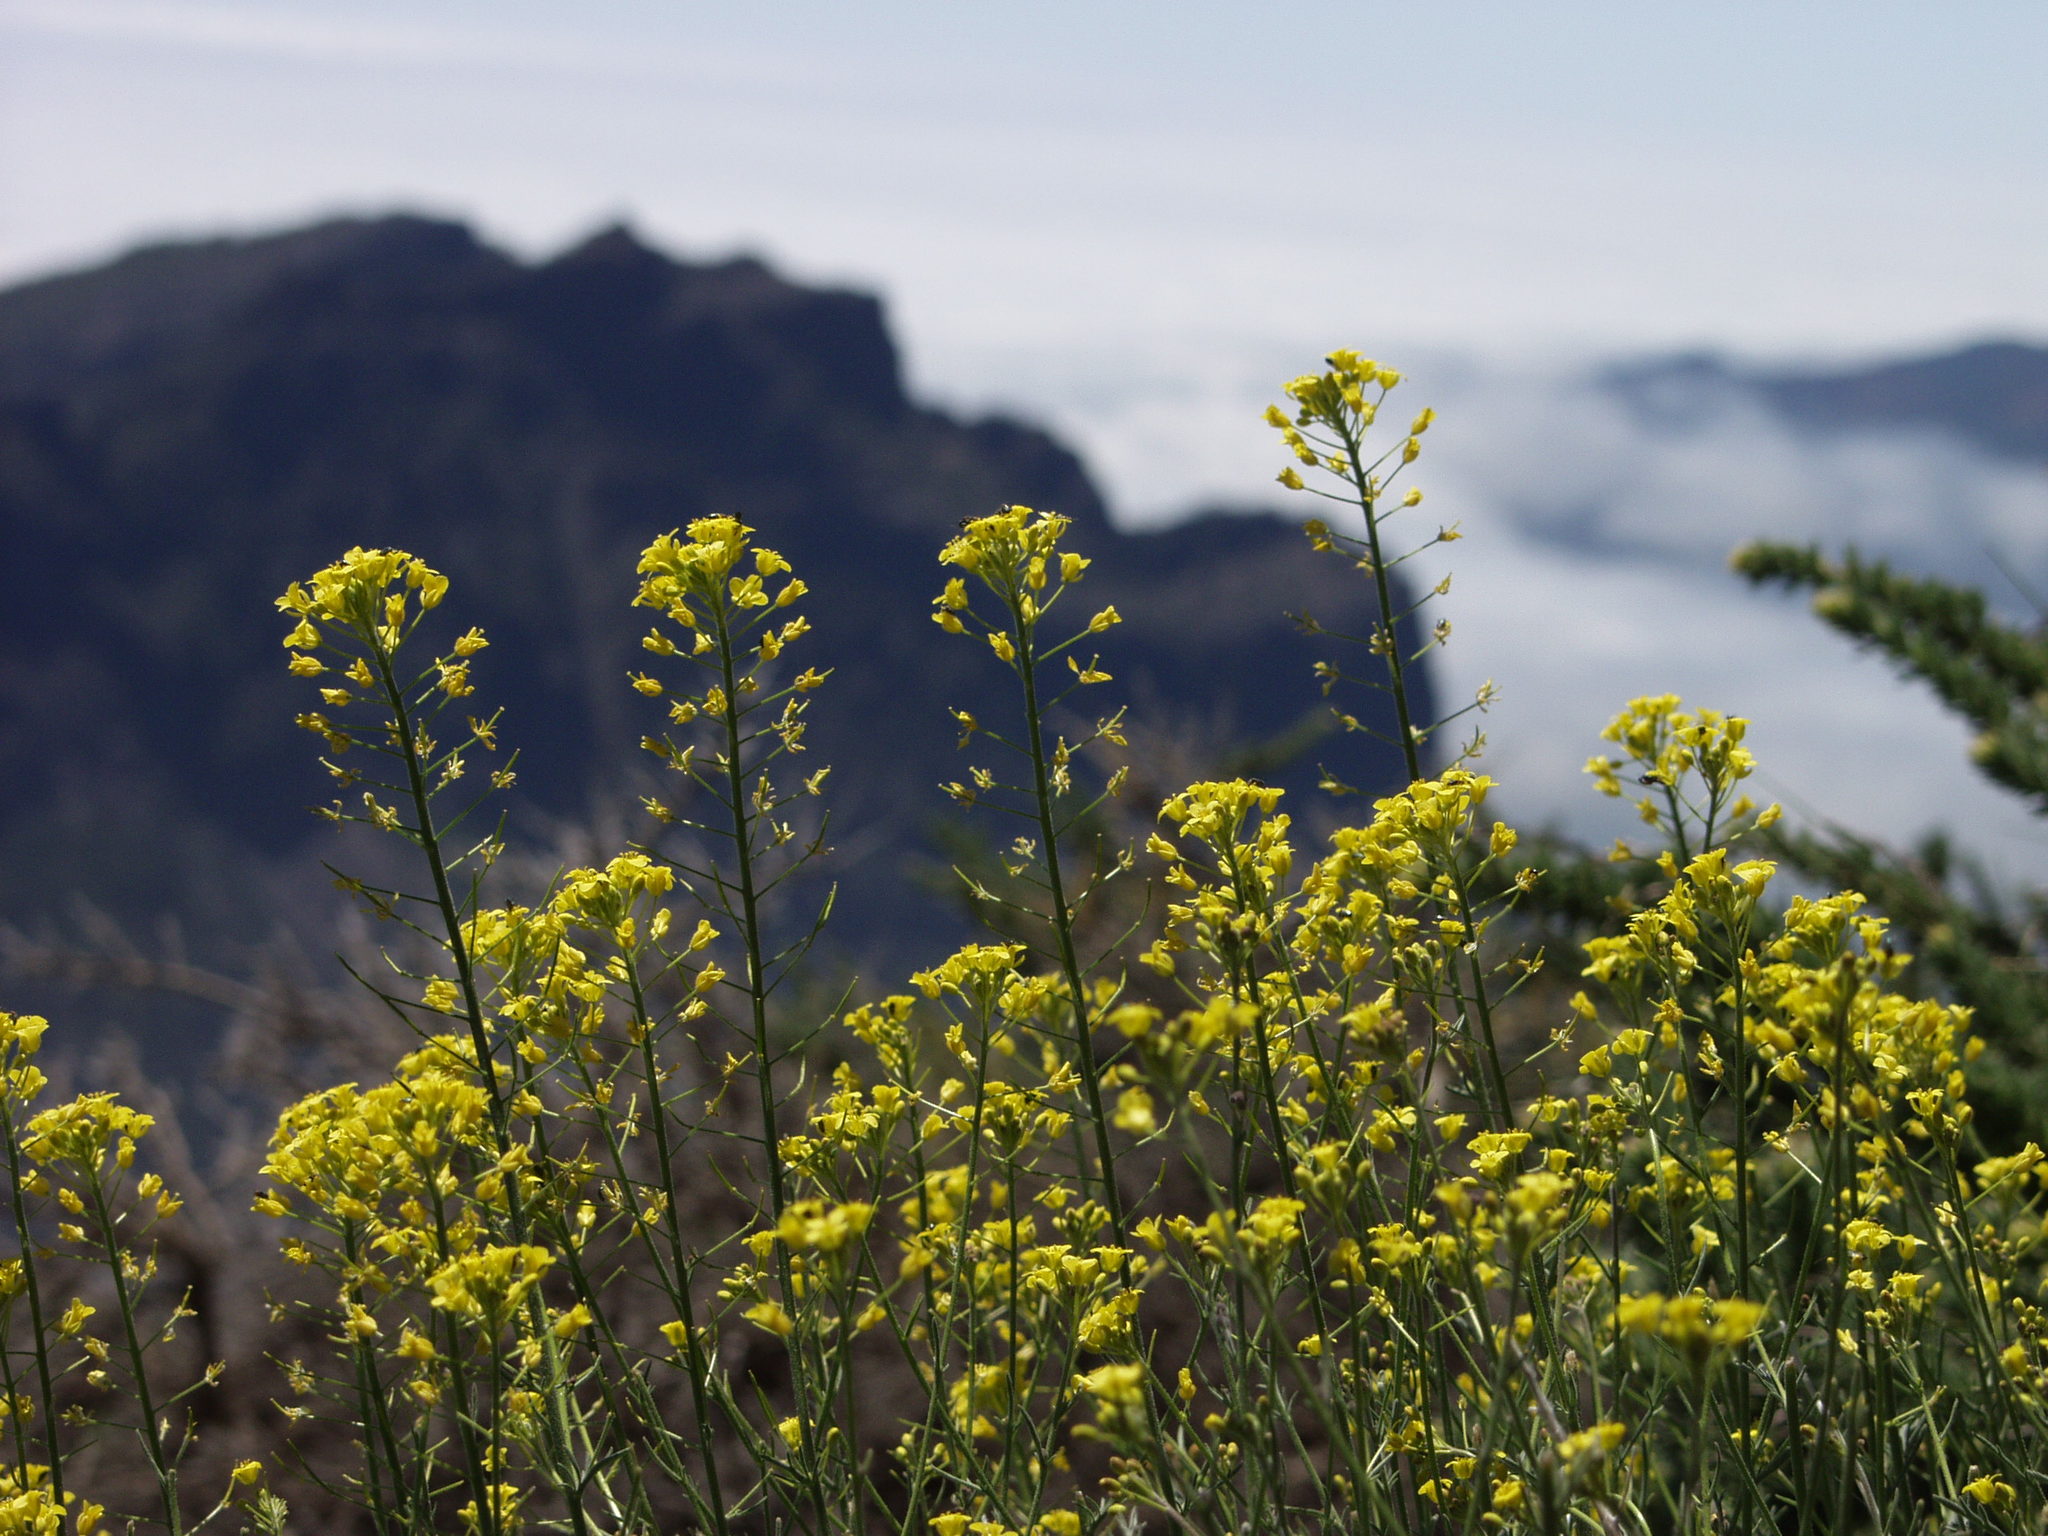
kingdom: Plantae
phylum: Tracheophyta
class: Magnoliopsida
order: Brassicales
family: Brassicaceae
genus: Descurainia
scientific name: Descurainia gilva
